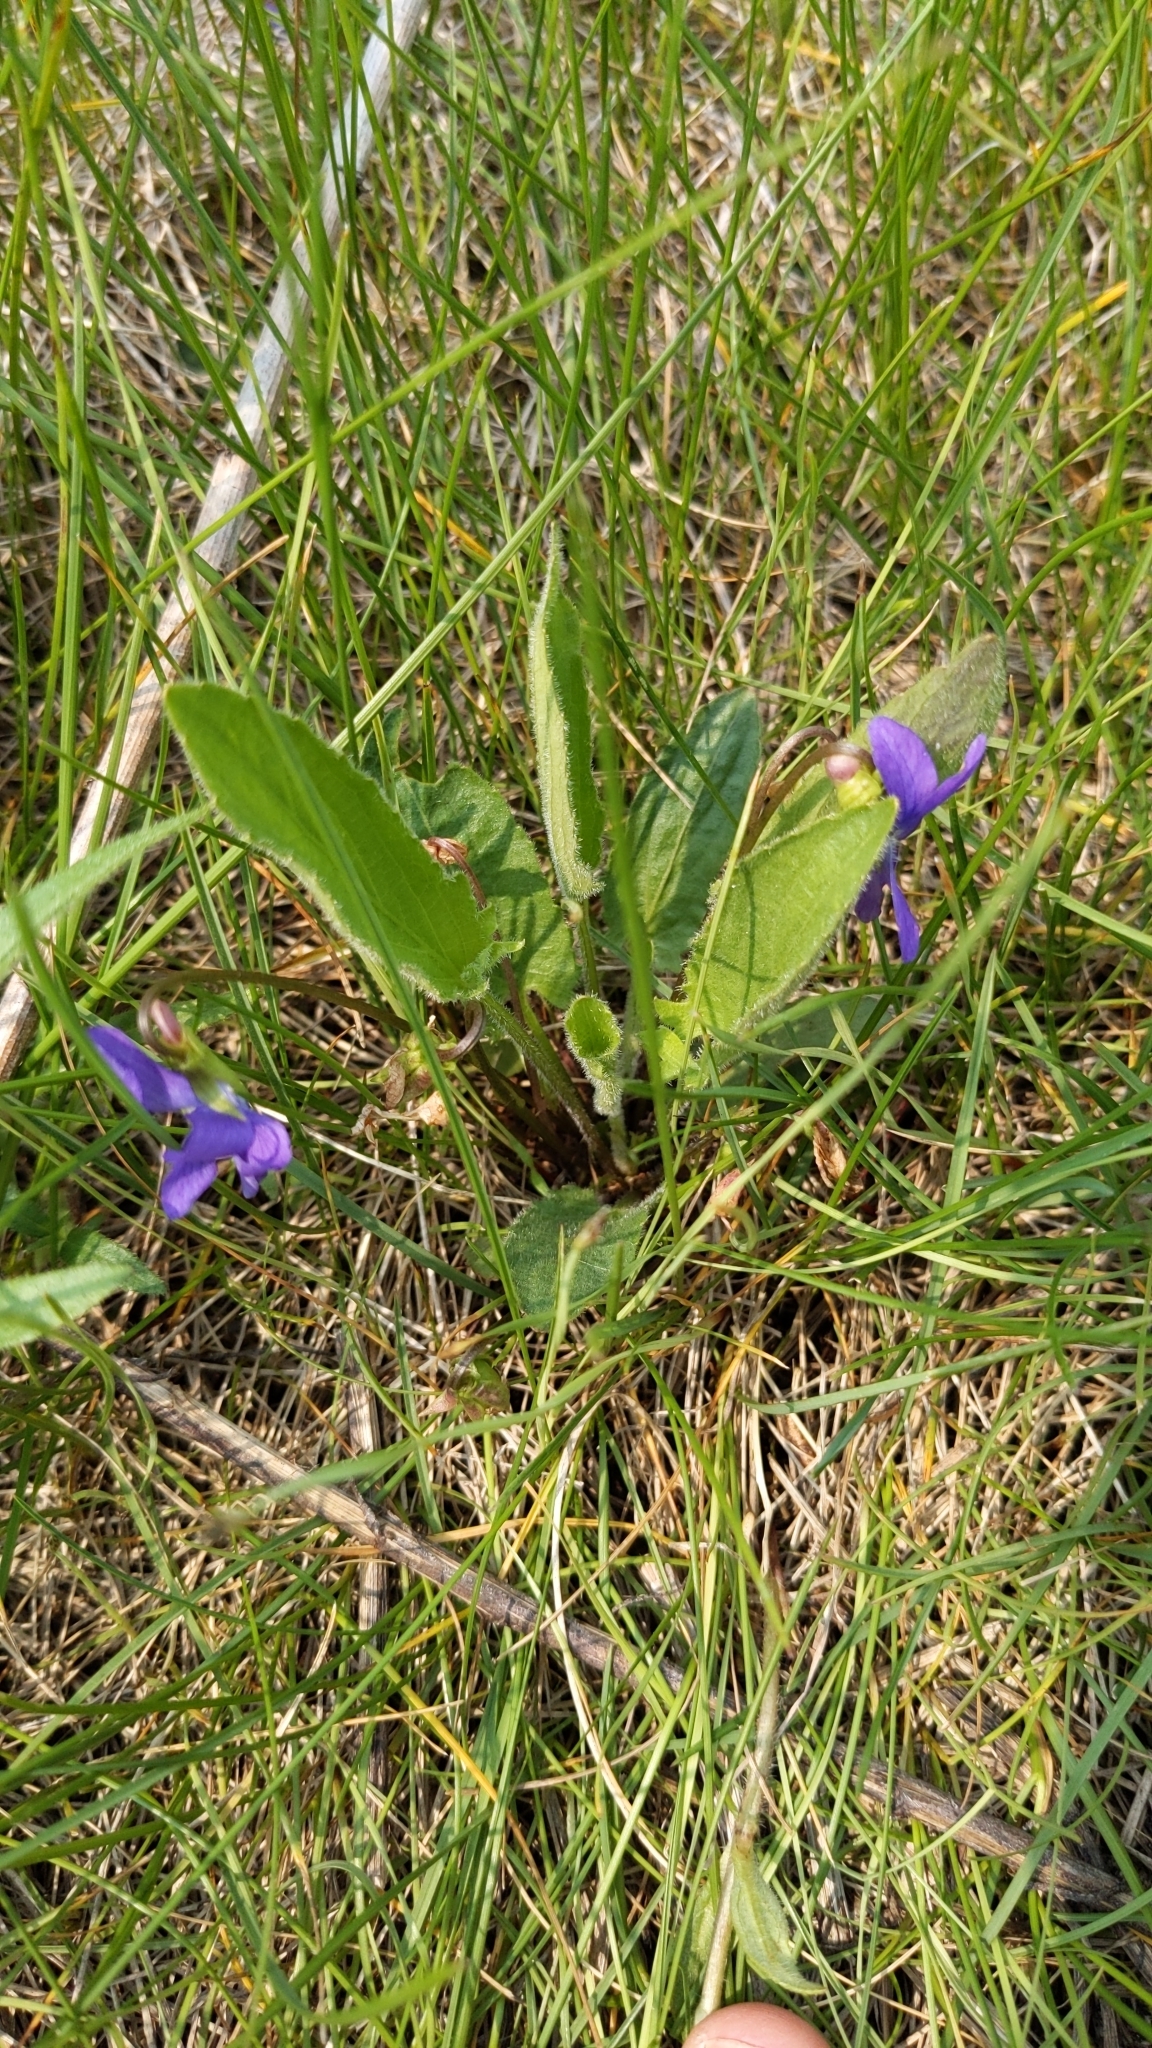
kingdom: Plantae
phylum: Tracheophyta
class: Magnoliopsida
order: Malpighiales
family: Violaceae
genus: Viola
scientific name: Viola sagittata
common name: Arrowhead violet
